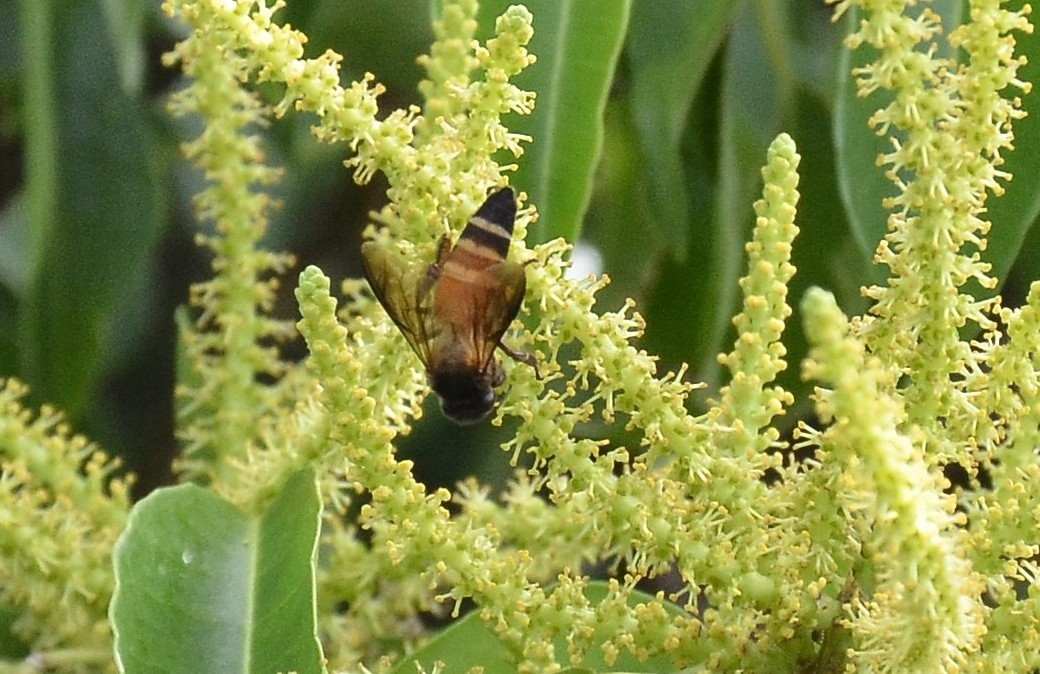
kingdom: Animalia
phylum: Arthropoda
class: Insecta
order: Hymenoptera
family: Apidae
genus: Apis
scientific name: Apis dorsata
